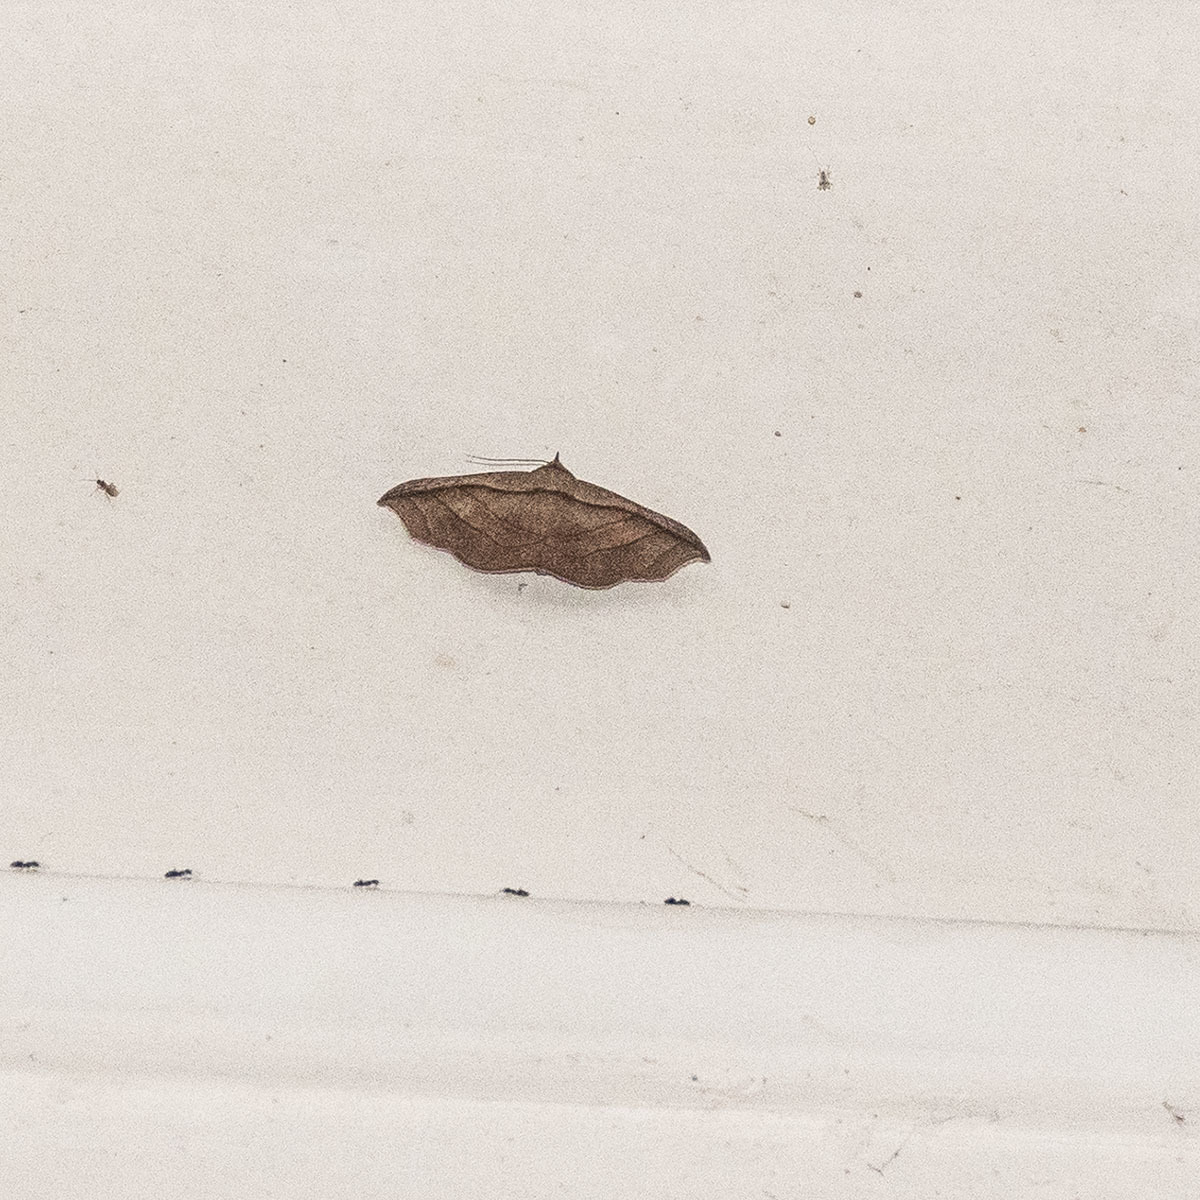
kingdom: Animalia
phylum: Arthropoda
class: Insecta
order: Lepidoptera
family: Erebidae
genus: Tiruvaca
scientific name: Tiruvaca subcostalis
